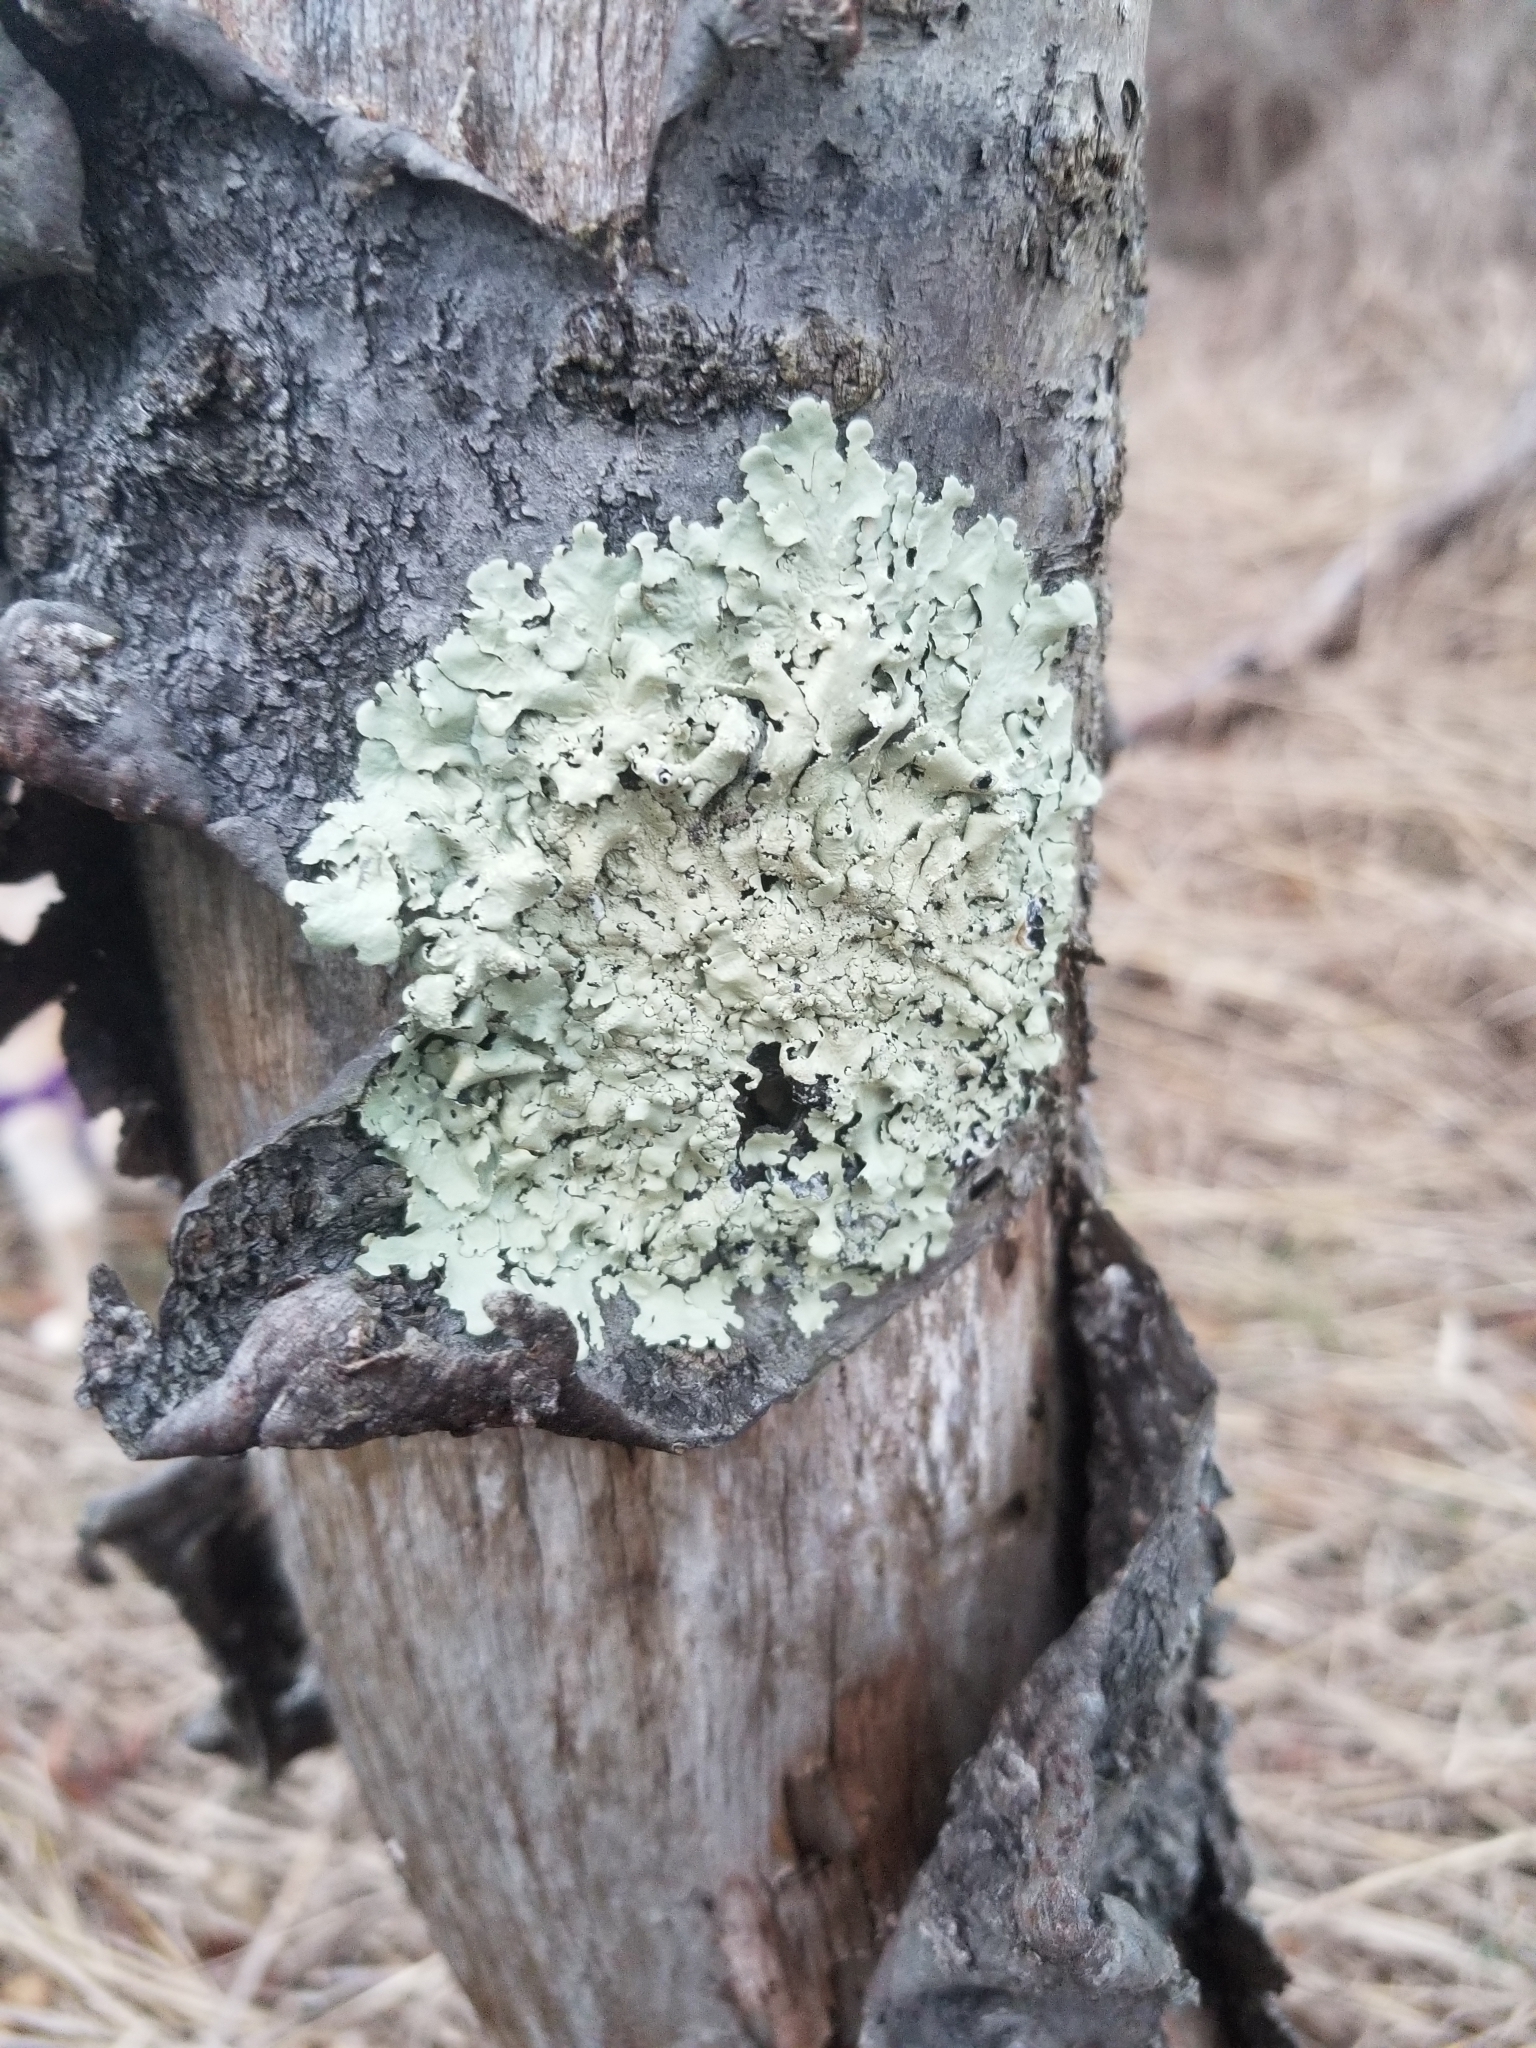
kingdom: Fungi
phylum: Ascomycota
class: Lecanoromycetes
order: Lecanorales
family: Parmeliaceae
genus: Flavoparmelia
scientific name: Flavoparmelia caperata
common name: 40-mile per hour lichen
